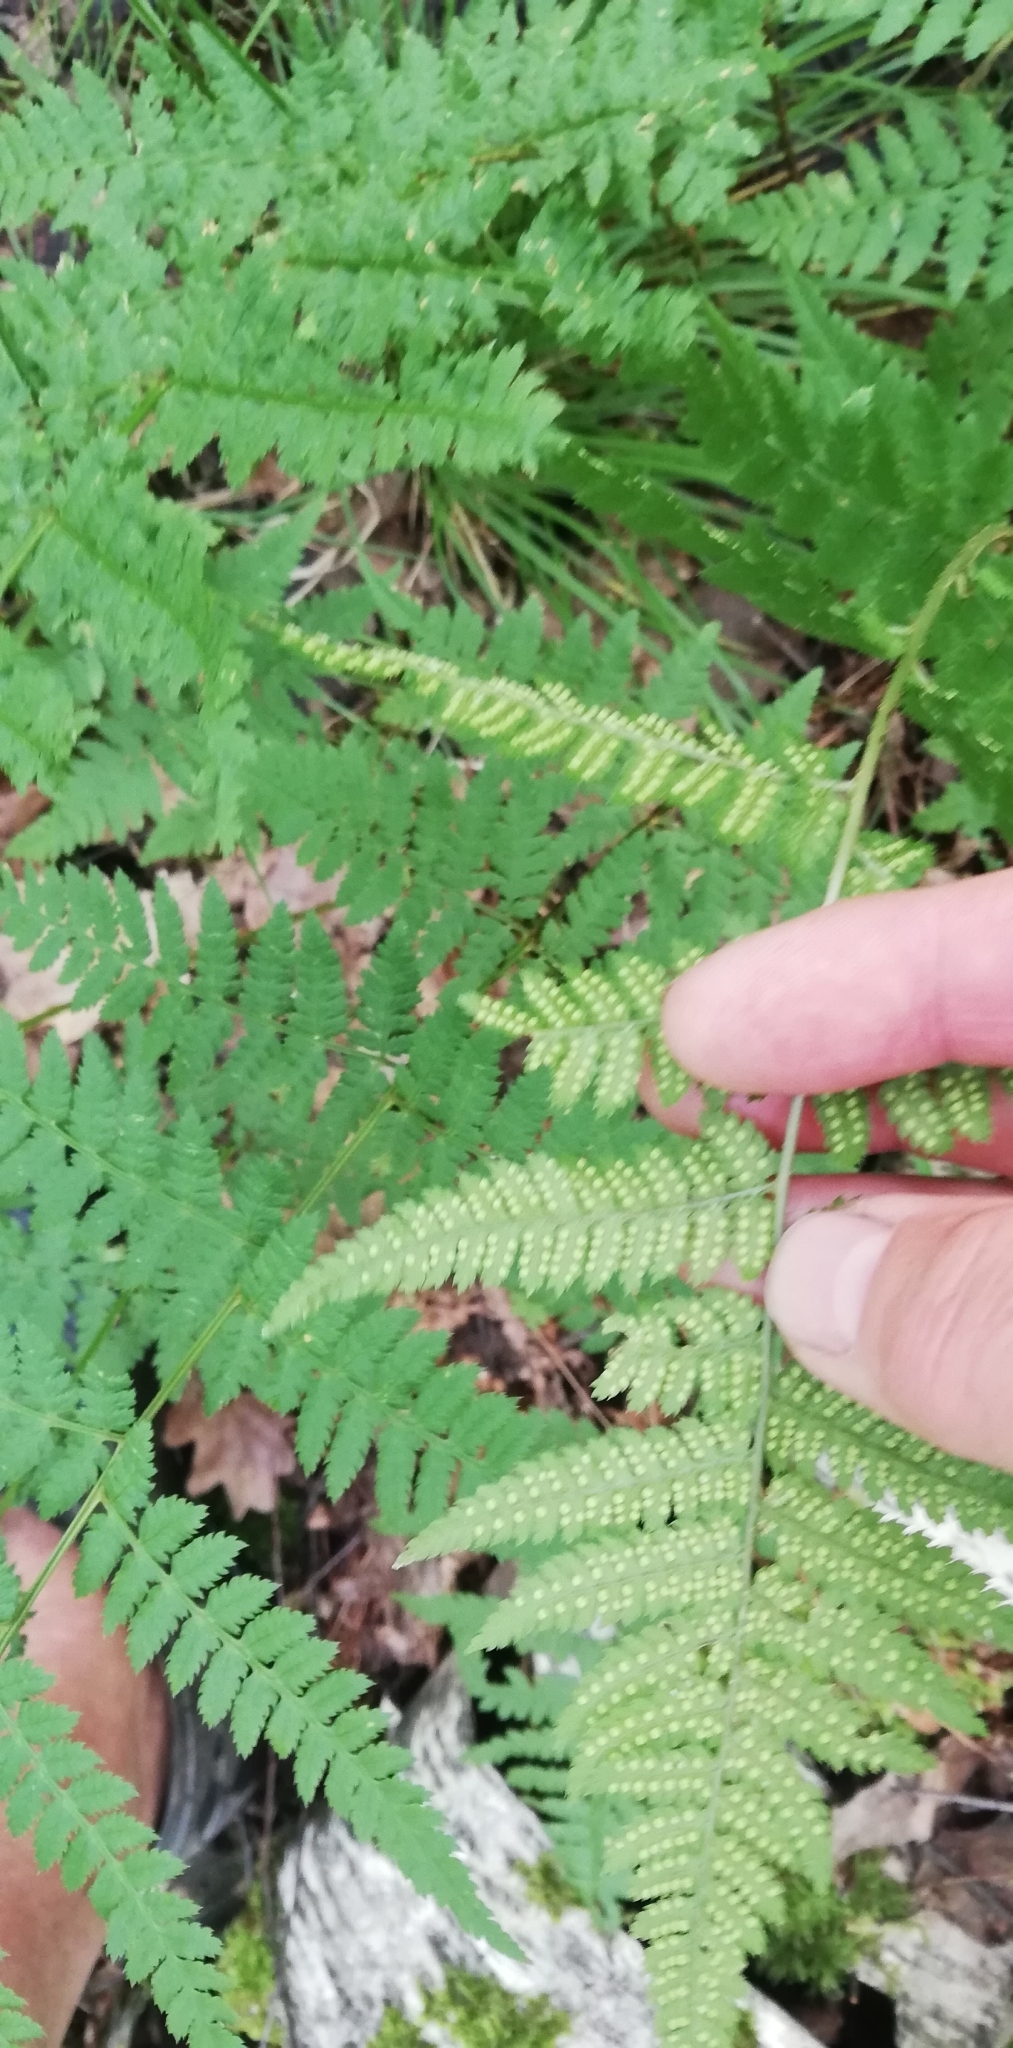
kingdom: Plantae
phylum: Tracheophyta
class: Polypodiopsida
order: Polypodiales
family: Dryopteridaceae
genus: Dryopteris
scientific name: Dryopteris carthusiana
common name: Narrow buckler-fern
